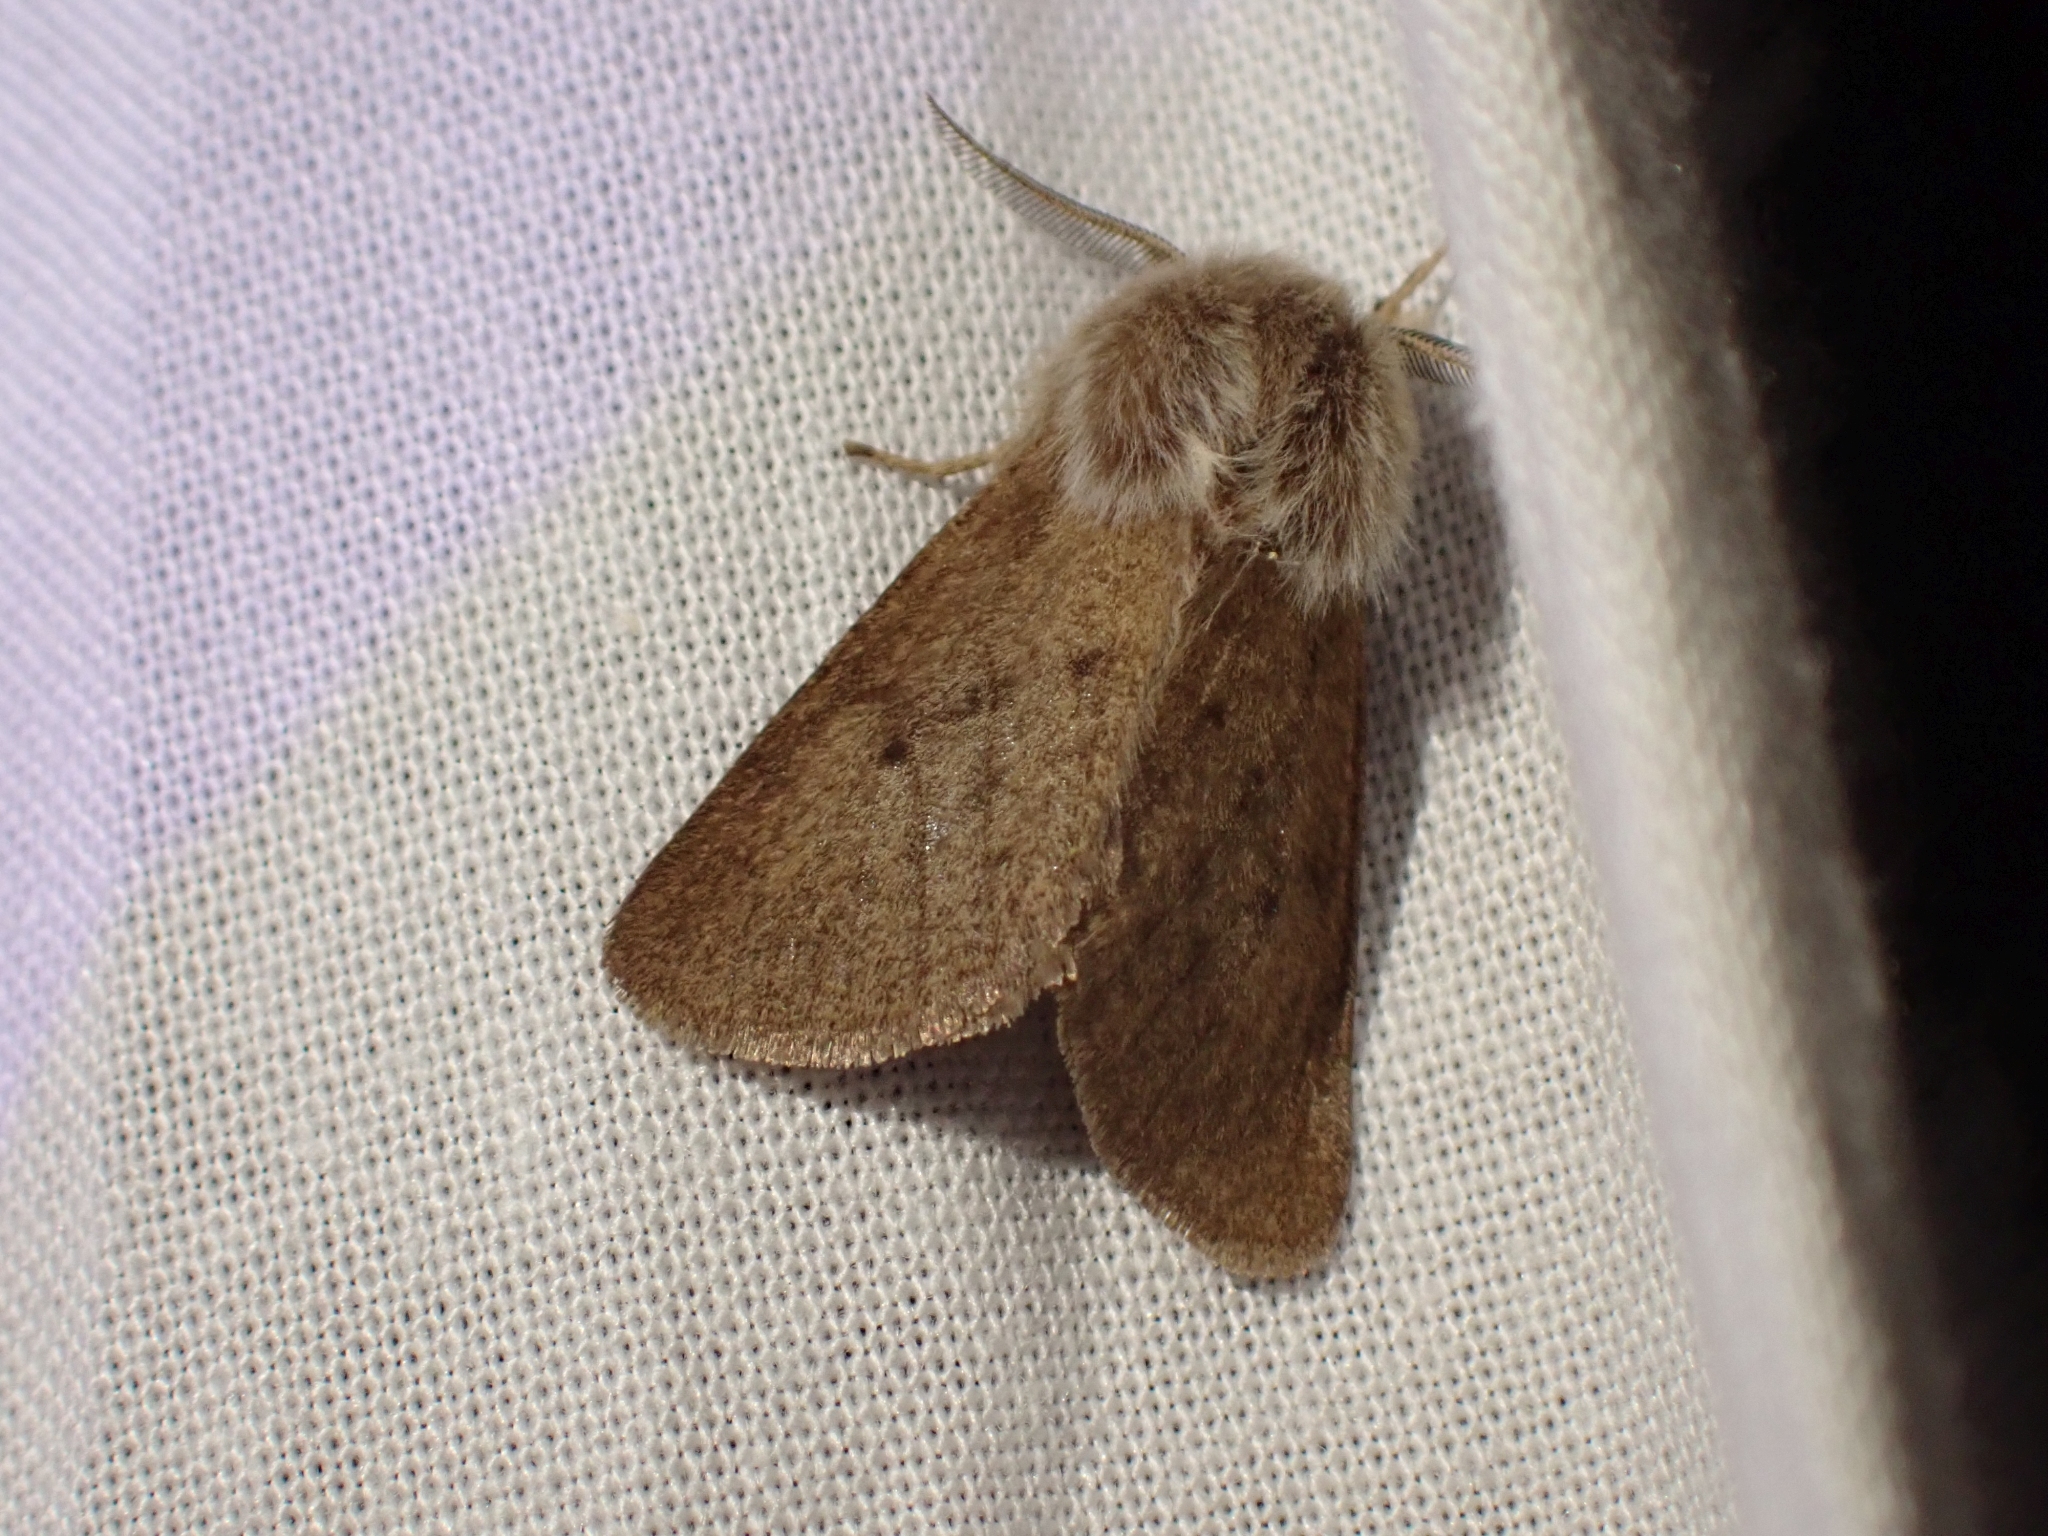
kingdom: Animalia
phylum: Arthropoda
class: Insecta
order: Lepidoptera
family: Erebidae
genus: Spilosoma
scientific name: Spilosoma vagans
